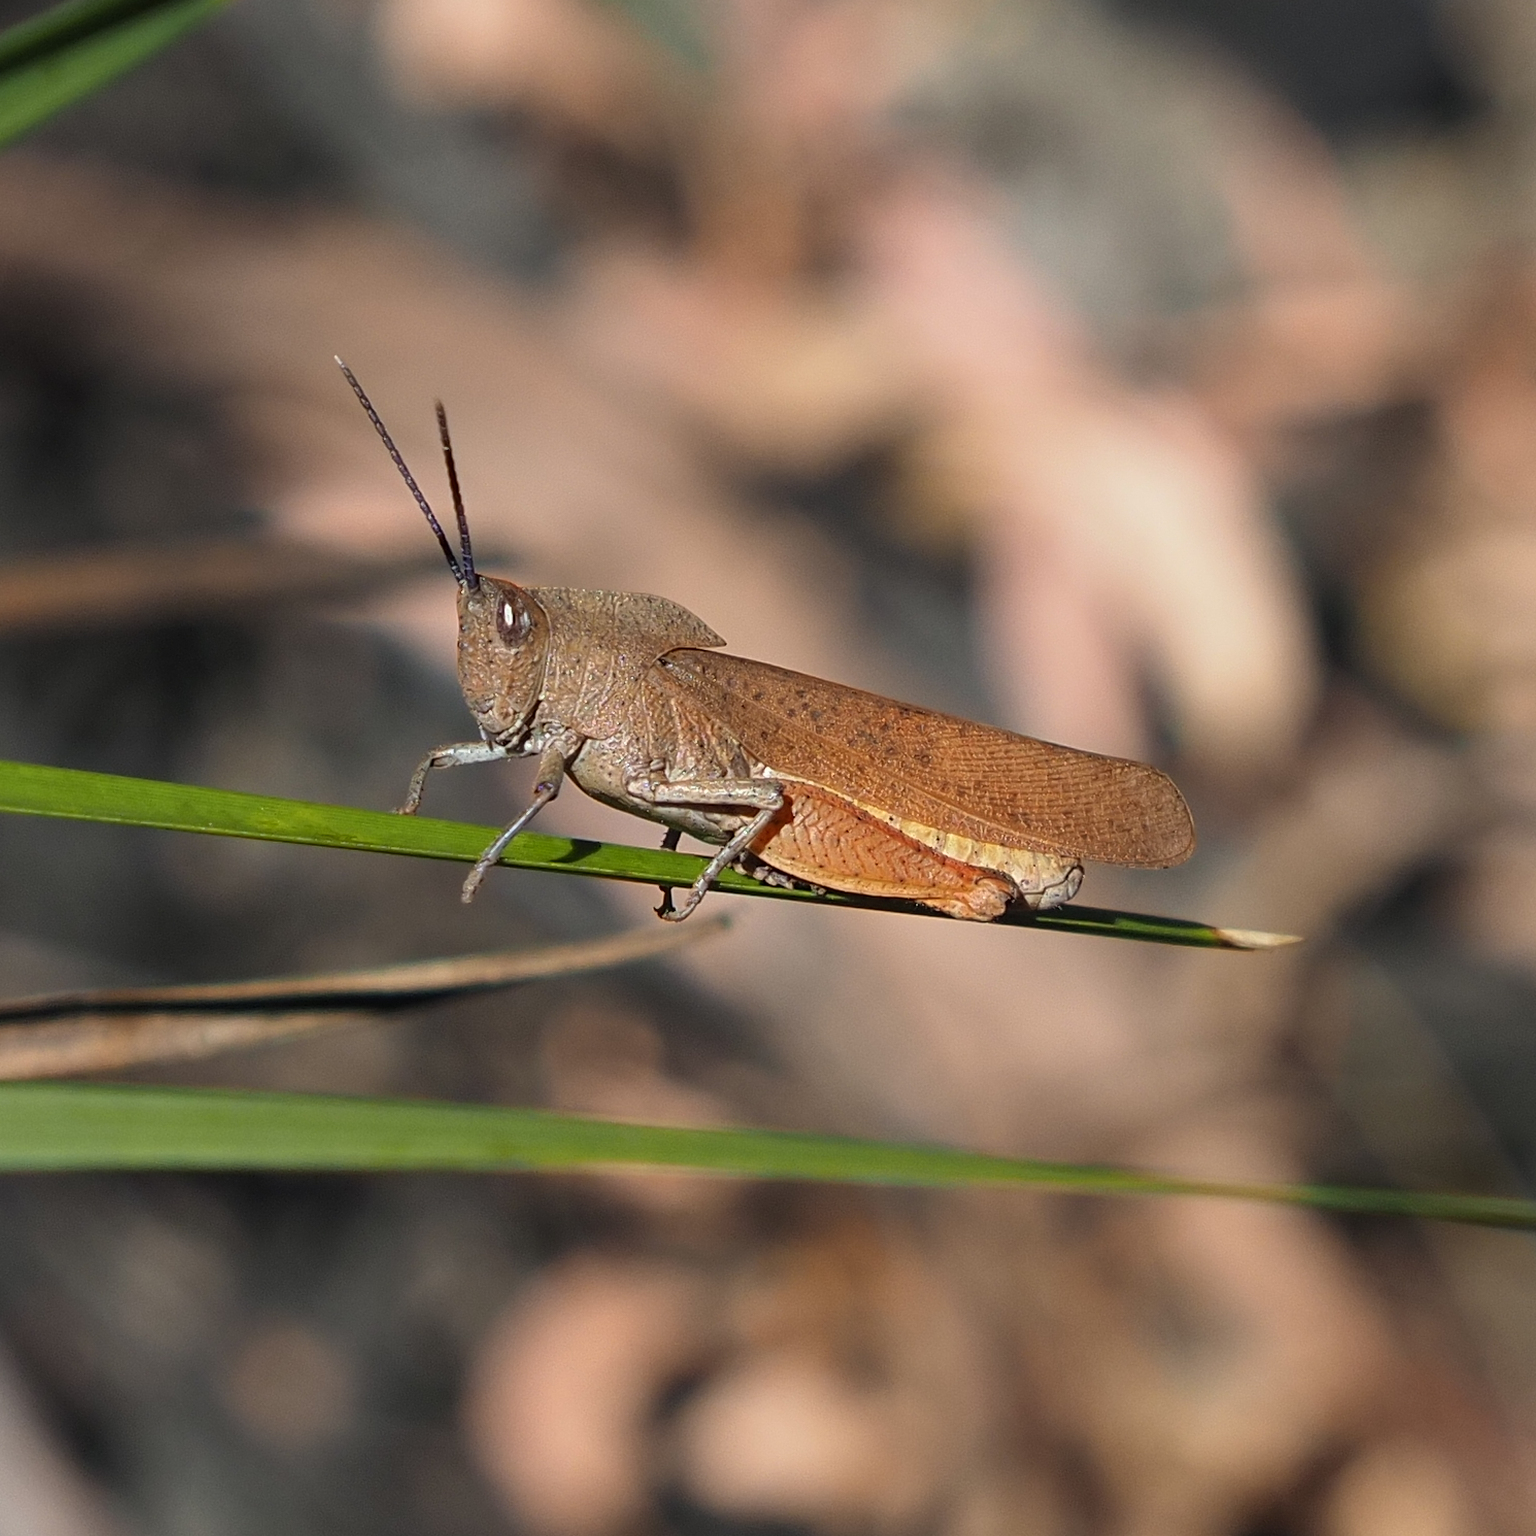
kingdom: Animalia
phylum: Arthropoda
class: Insecta
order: Orthoptera
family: Acrididae
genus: Goniaea
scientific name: Goniaea australasiae
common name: Gumleaf grasshopper
